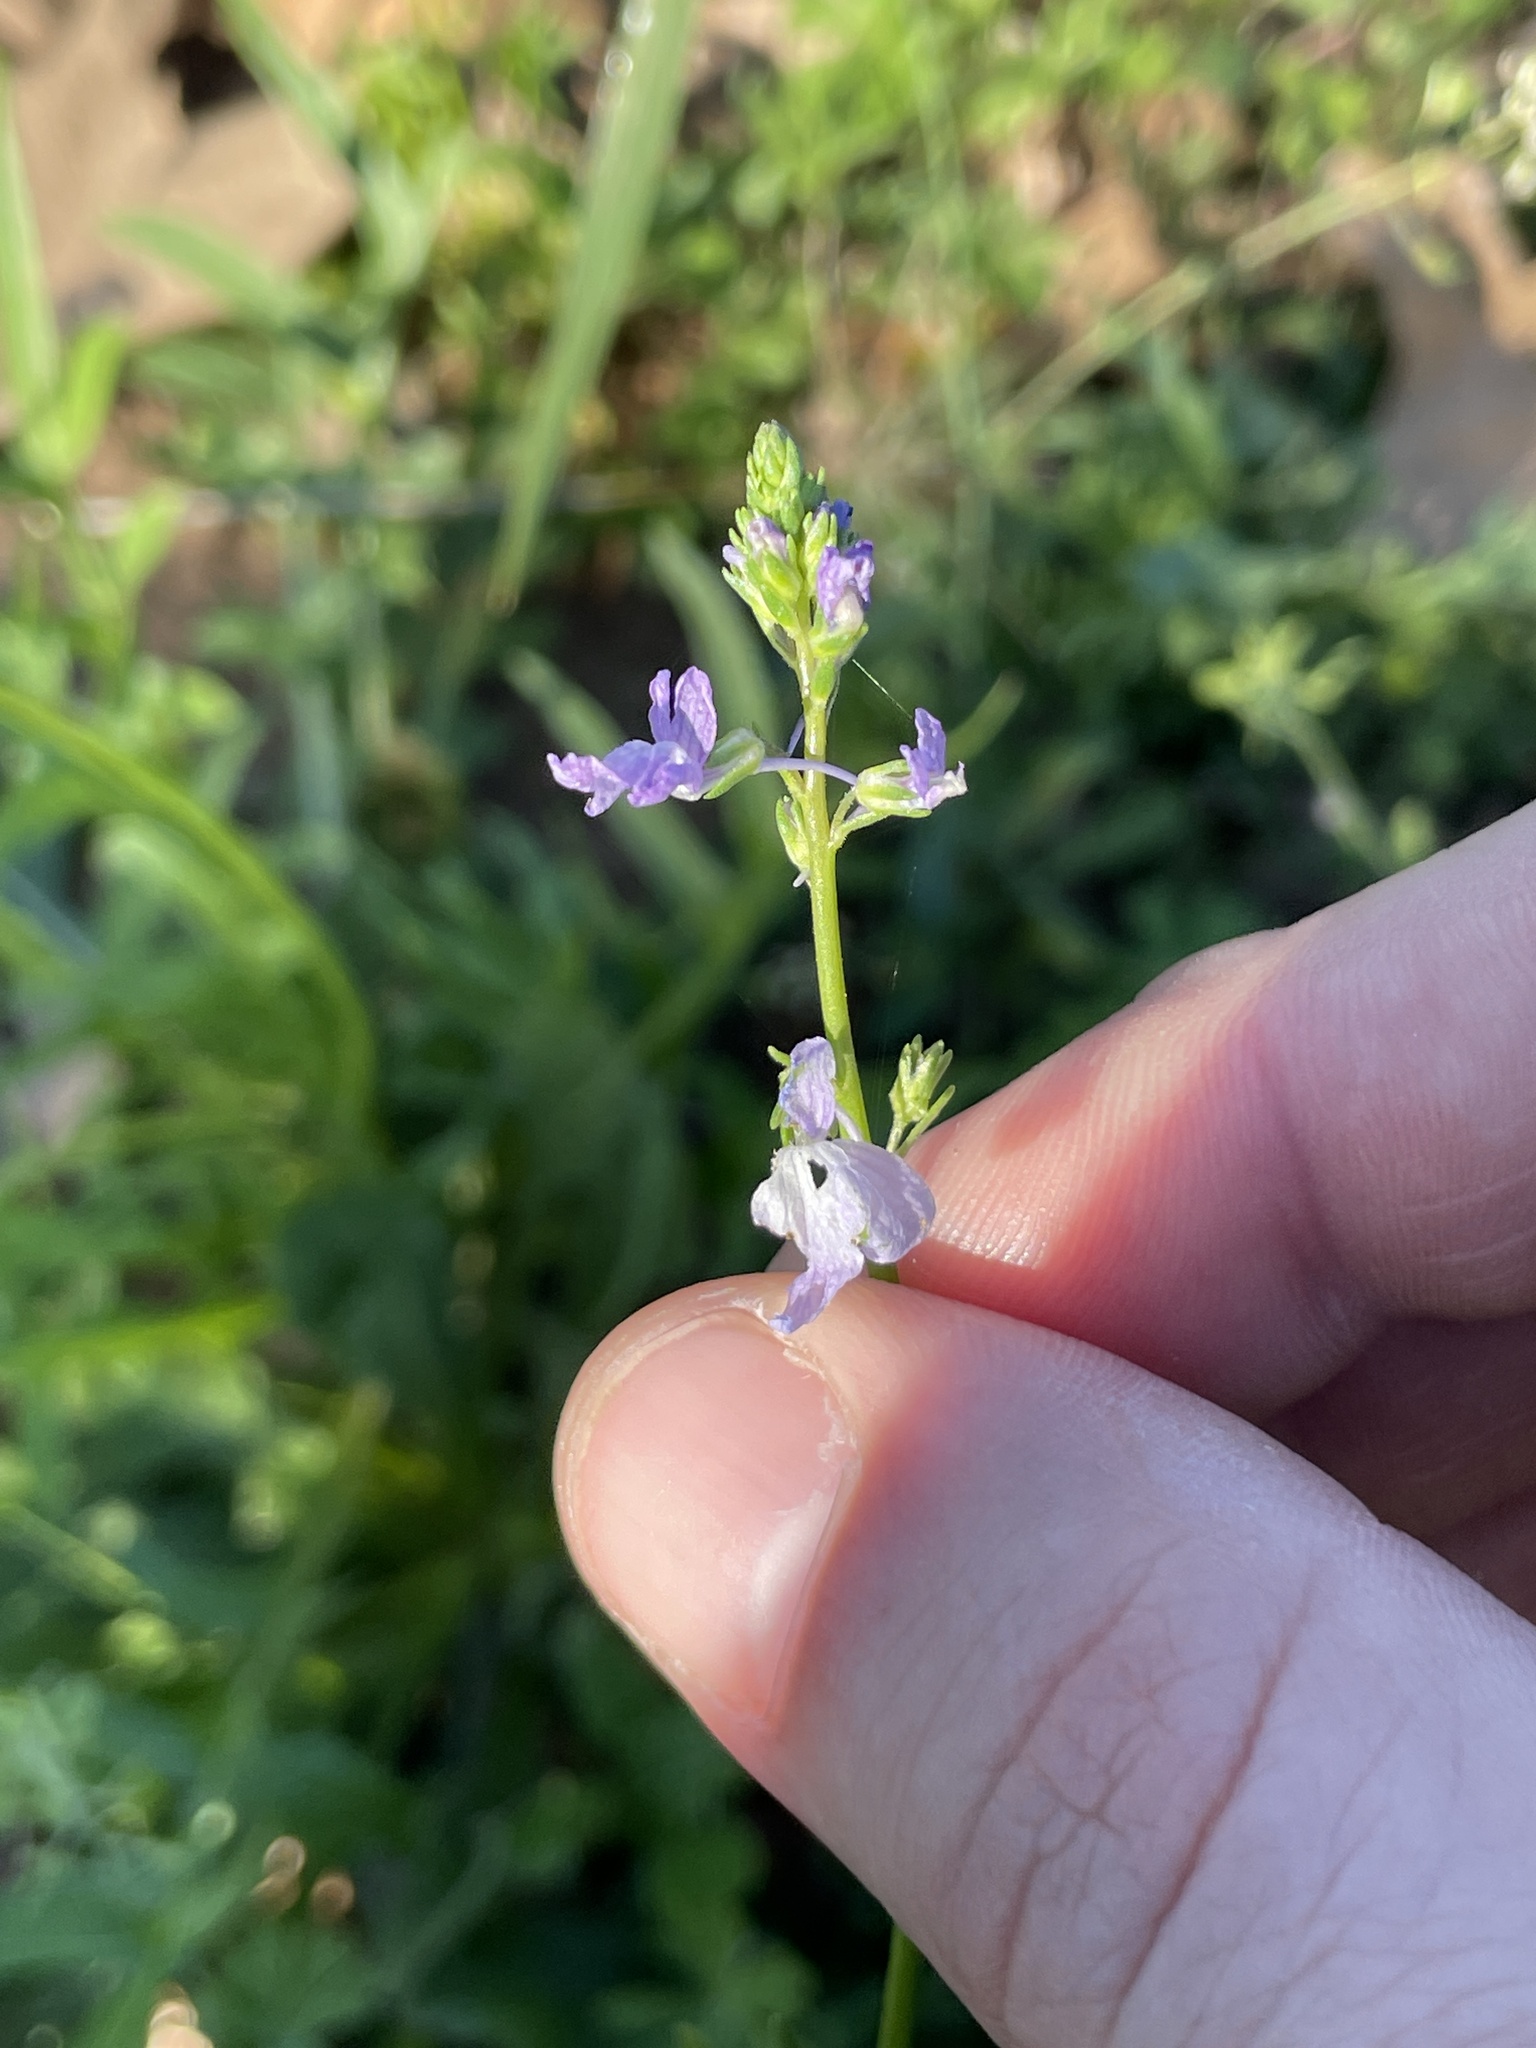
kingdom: Plantae
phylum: Tracheophyta
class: Magnoliopsida
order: Lamiales
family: Plantaginaceae
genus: Nuttallanthus
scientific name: Nuttallanthus texanus
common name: Texas toadflax
